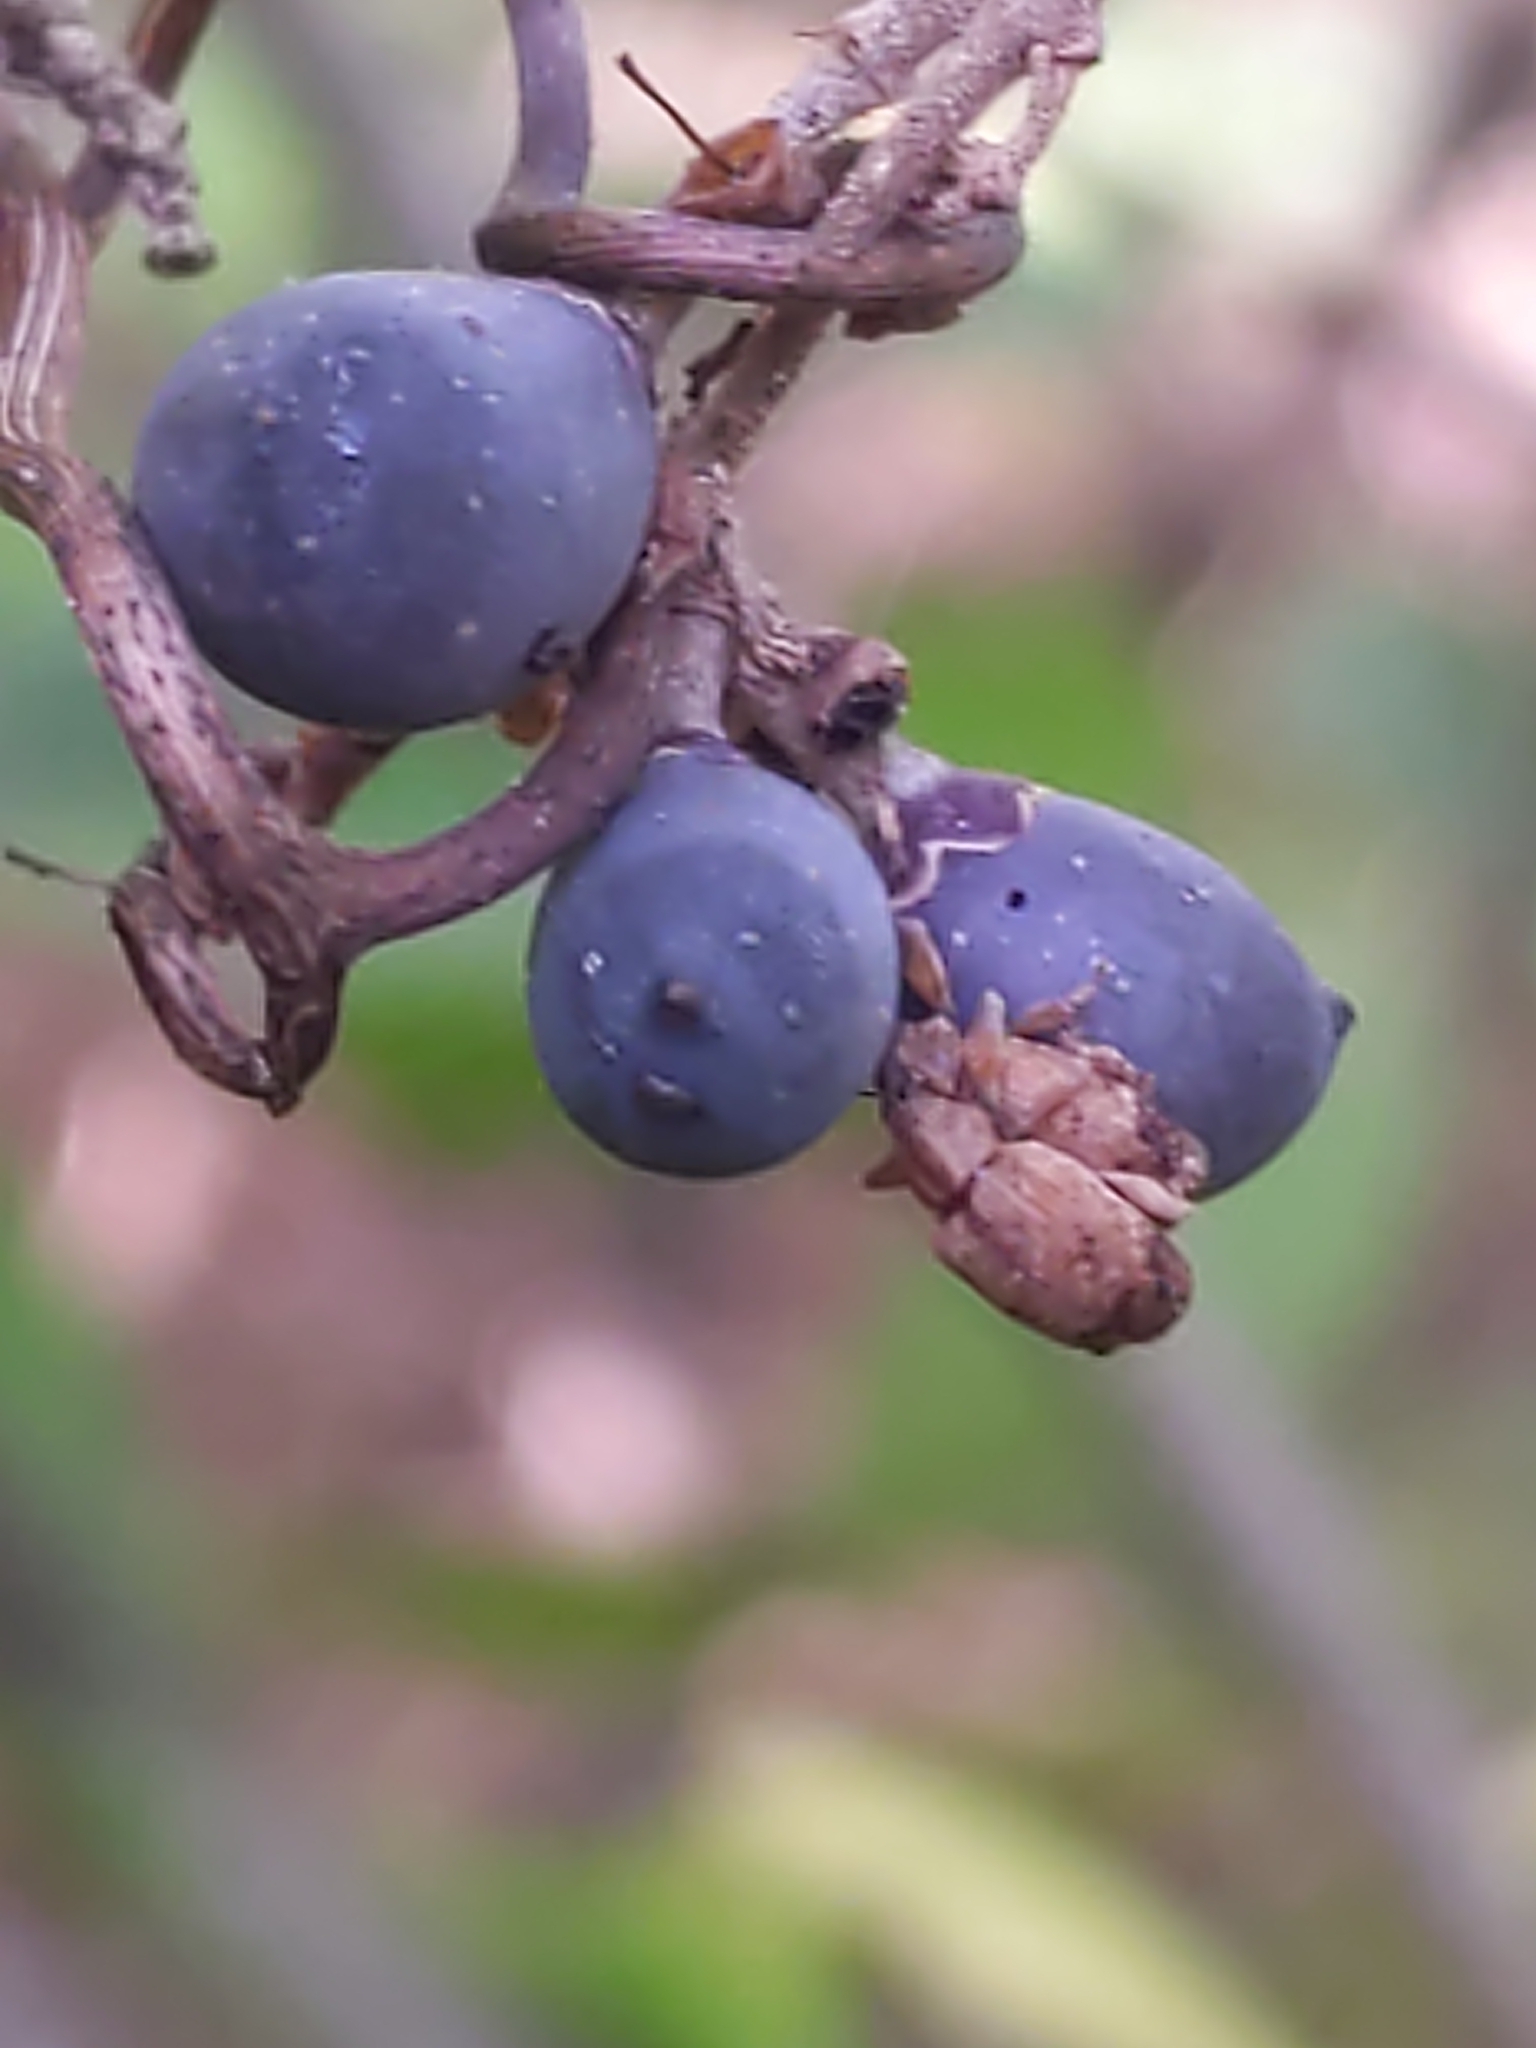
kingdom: Animalia
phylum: Arthropoda
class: Insecta
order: Coleoptera
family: Curculionidae
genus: Ochyromera
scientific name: Ochyromera ligustri
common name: Weevil
